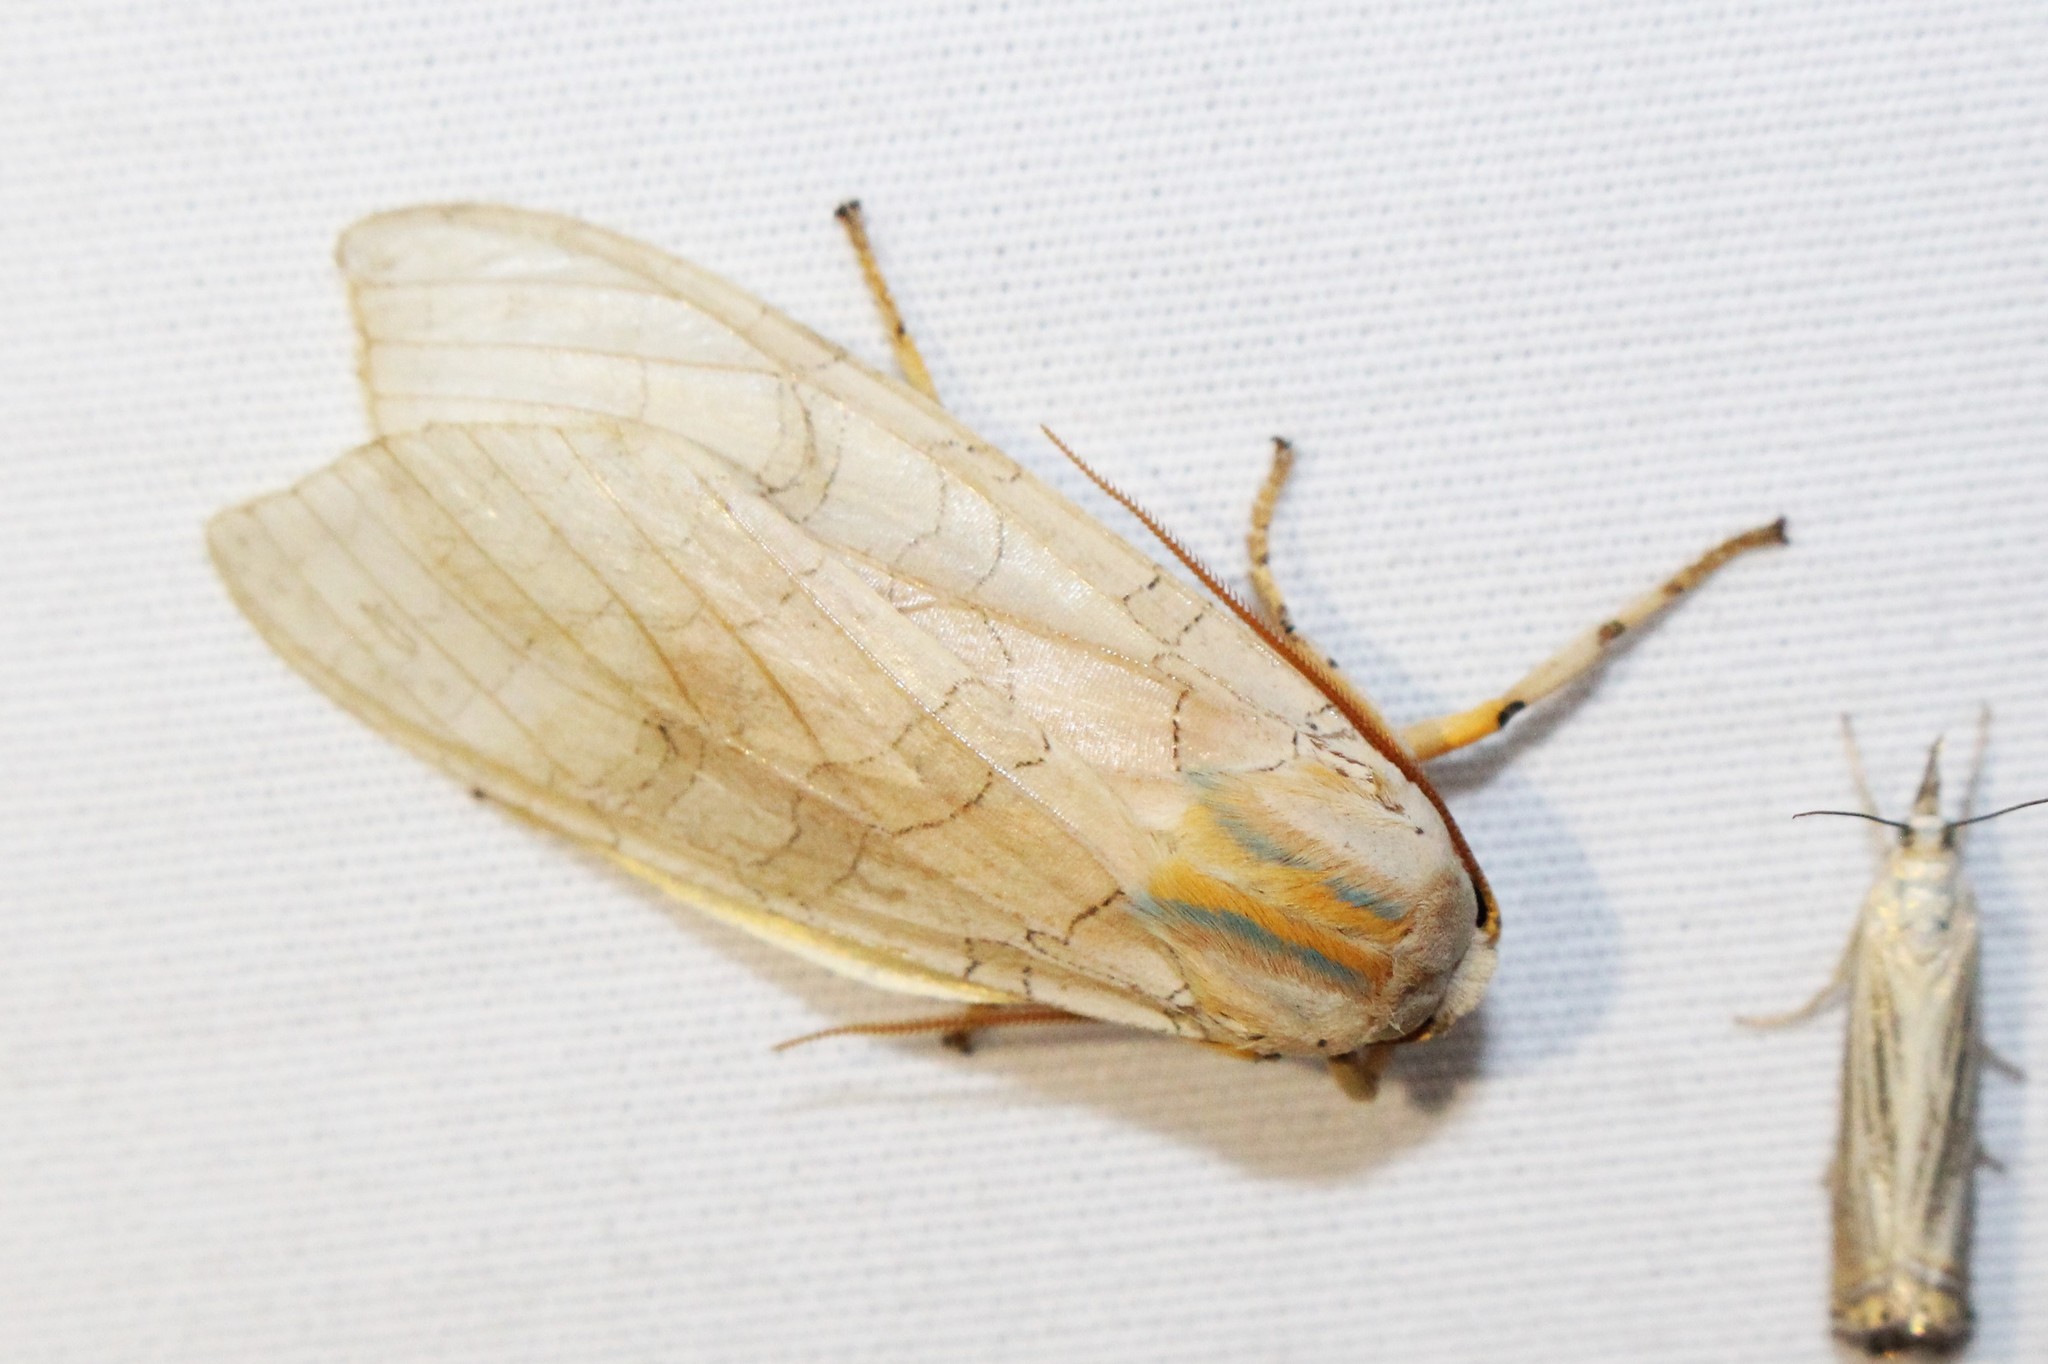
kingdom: Animalia
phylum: Arthropoda
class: Insecta
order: Lepidoptera
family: Erebidae
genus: Halysidota
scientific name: Halysidota tessellaris
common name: Banded tussock moth
